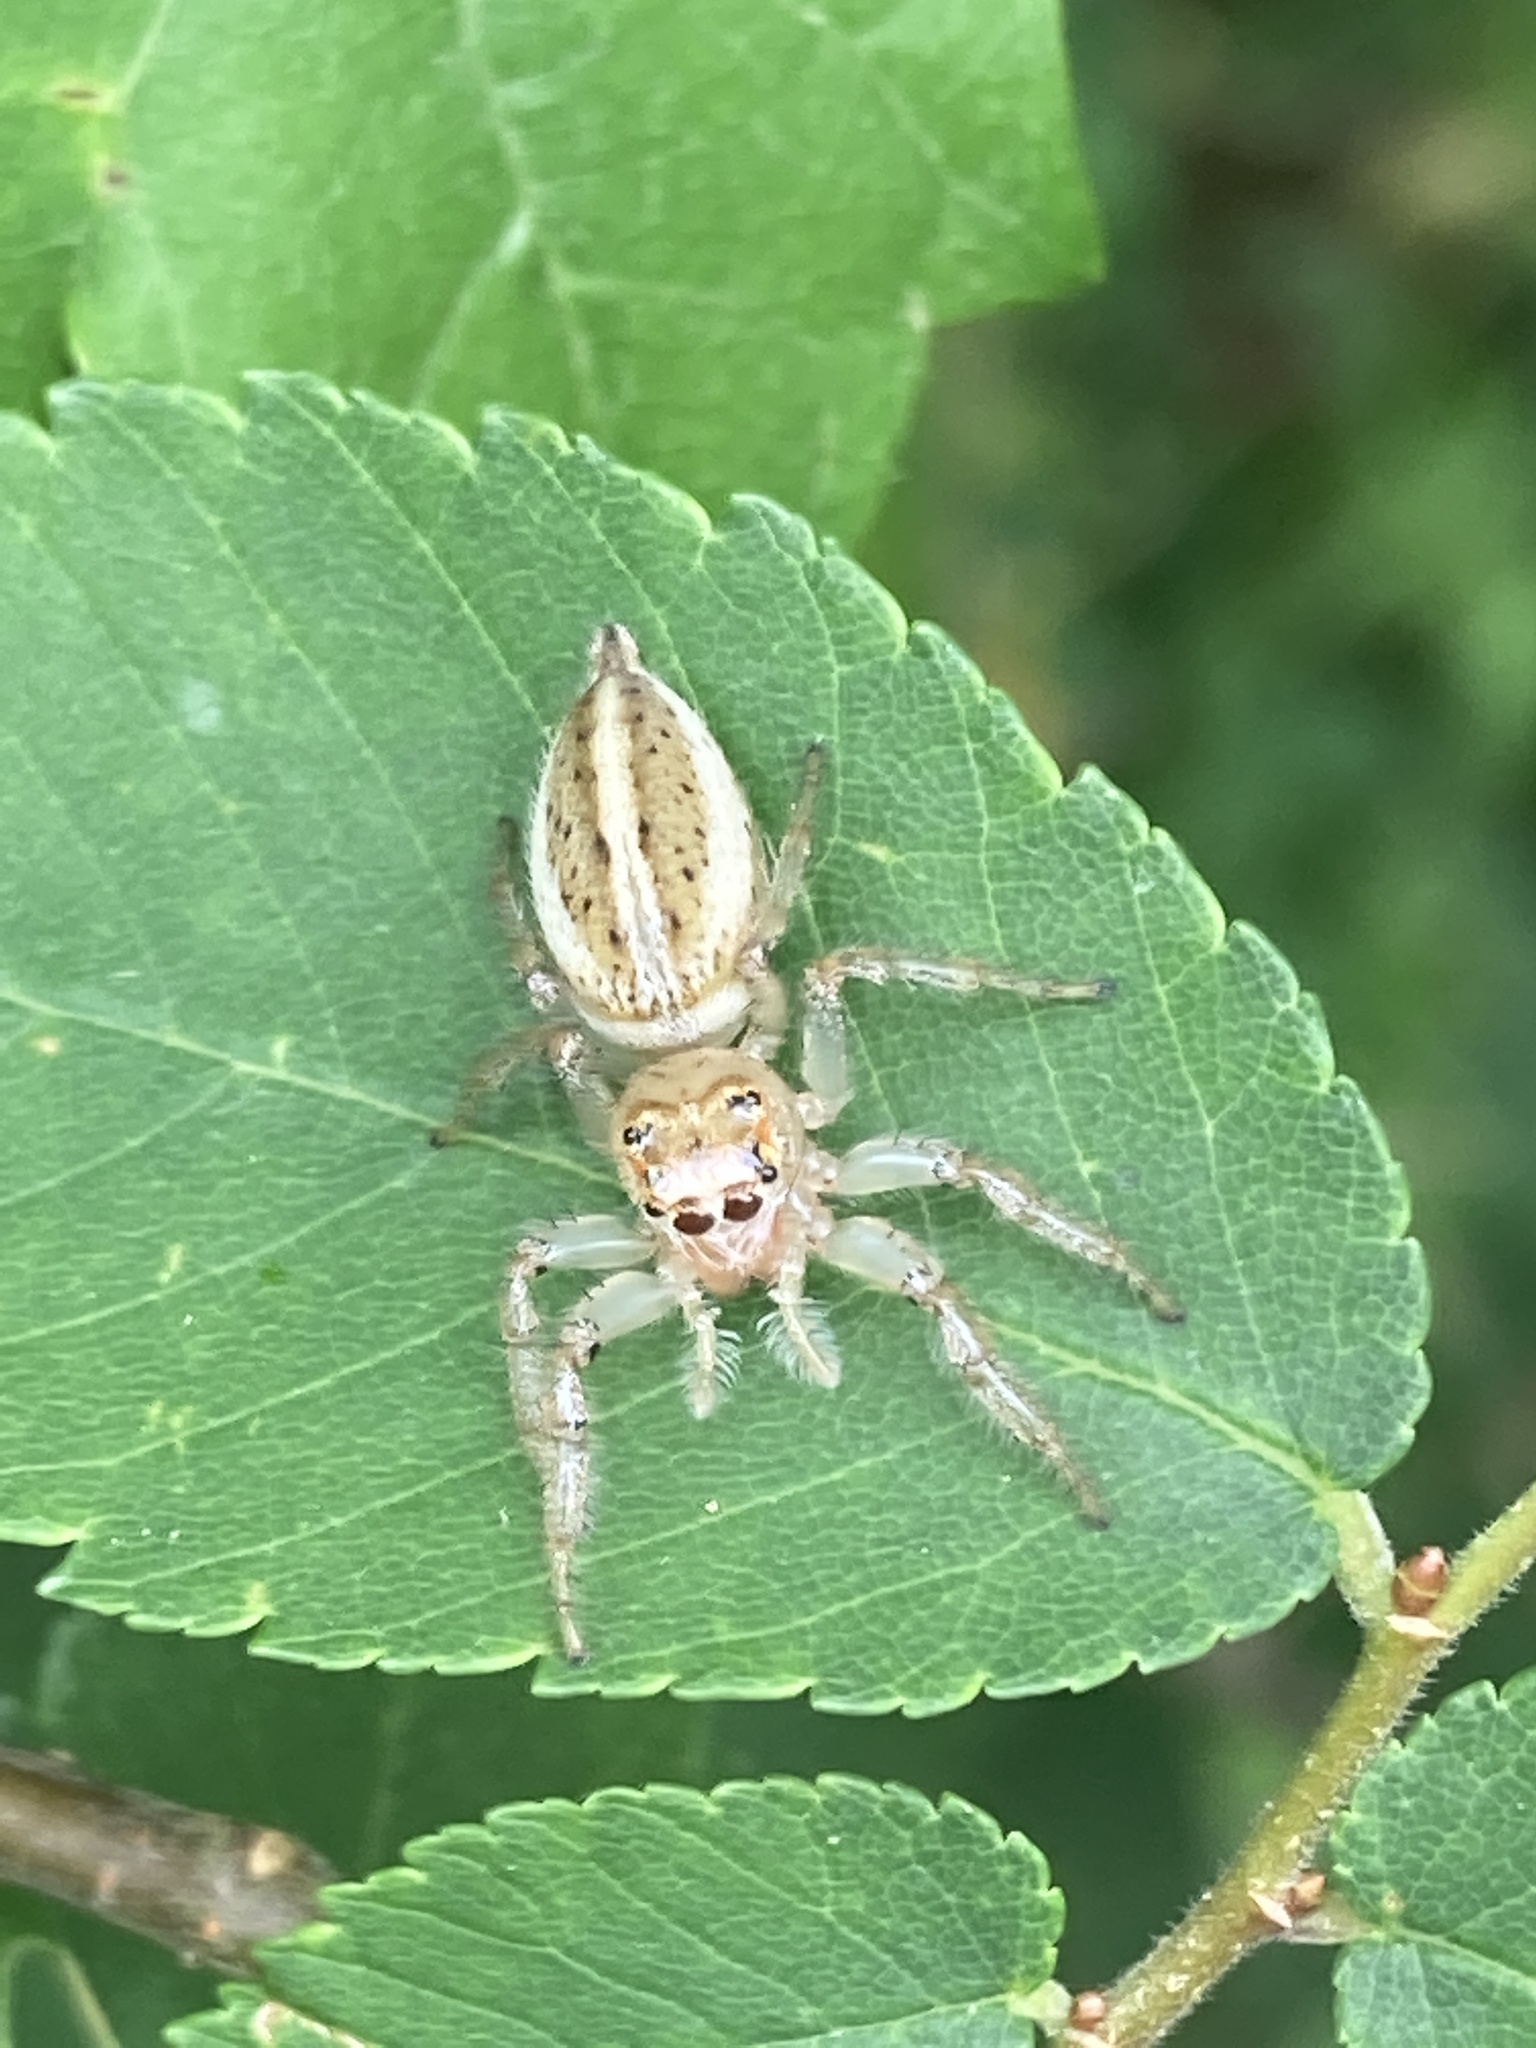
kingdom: Animalia
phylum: Arthropoda
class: Arachnida
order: Araneae
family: Salticidae
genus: Colonus
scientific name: Colonus sylvanus
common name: Jumping spiders
